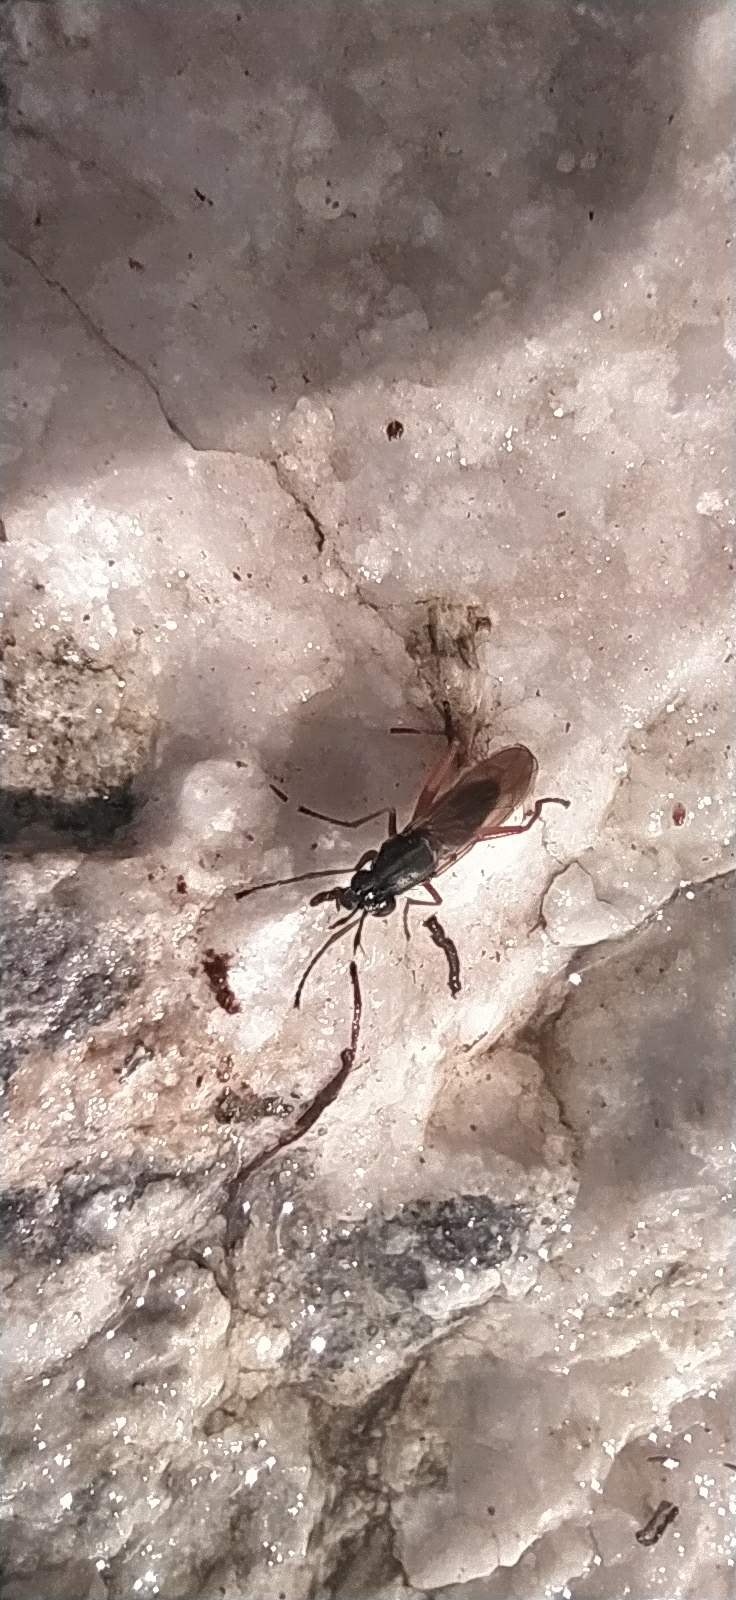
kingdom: Animalia
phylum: Arthropoda
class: Insecta
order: Diptera
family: Sciomyzidae
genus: Sepedon
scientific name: Sepedon sphegea
